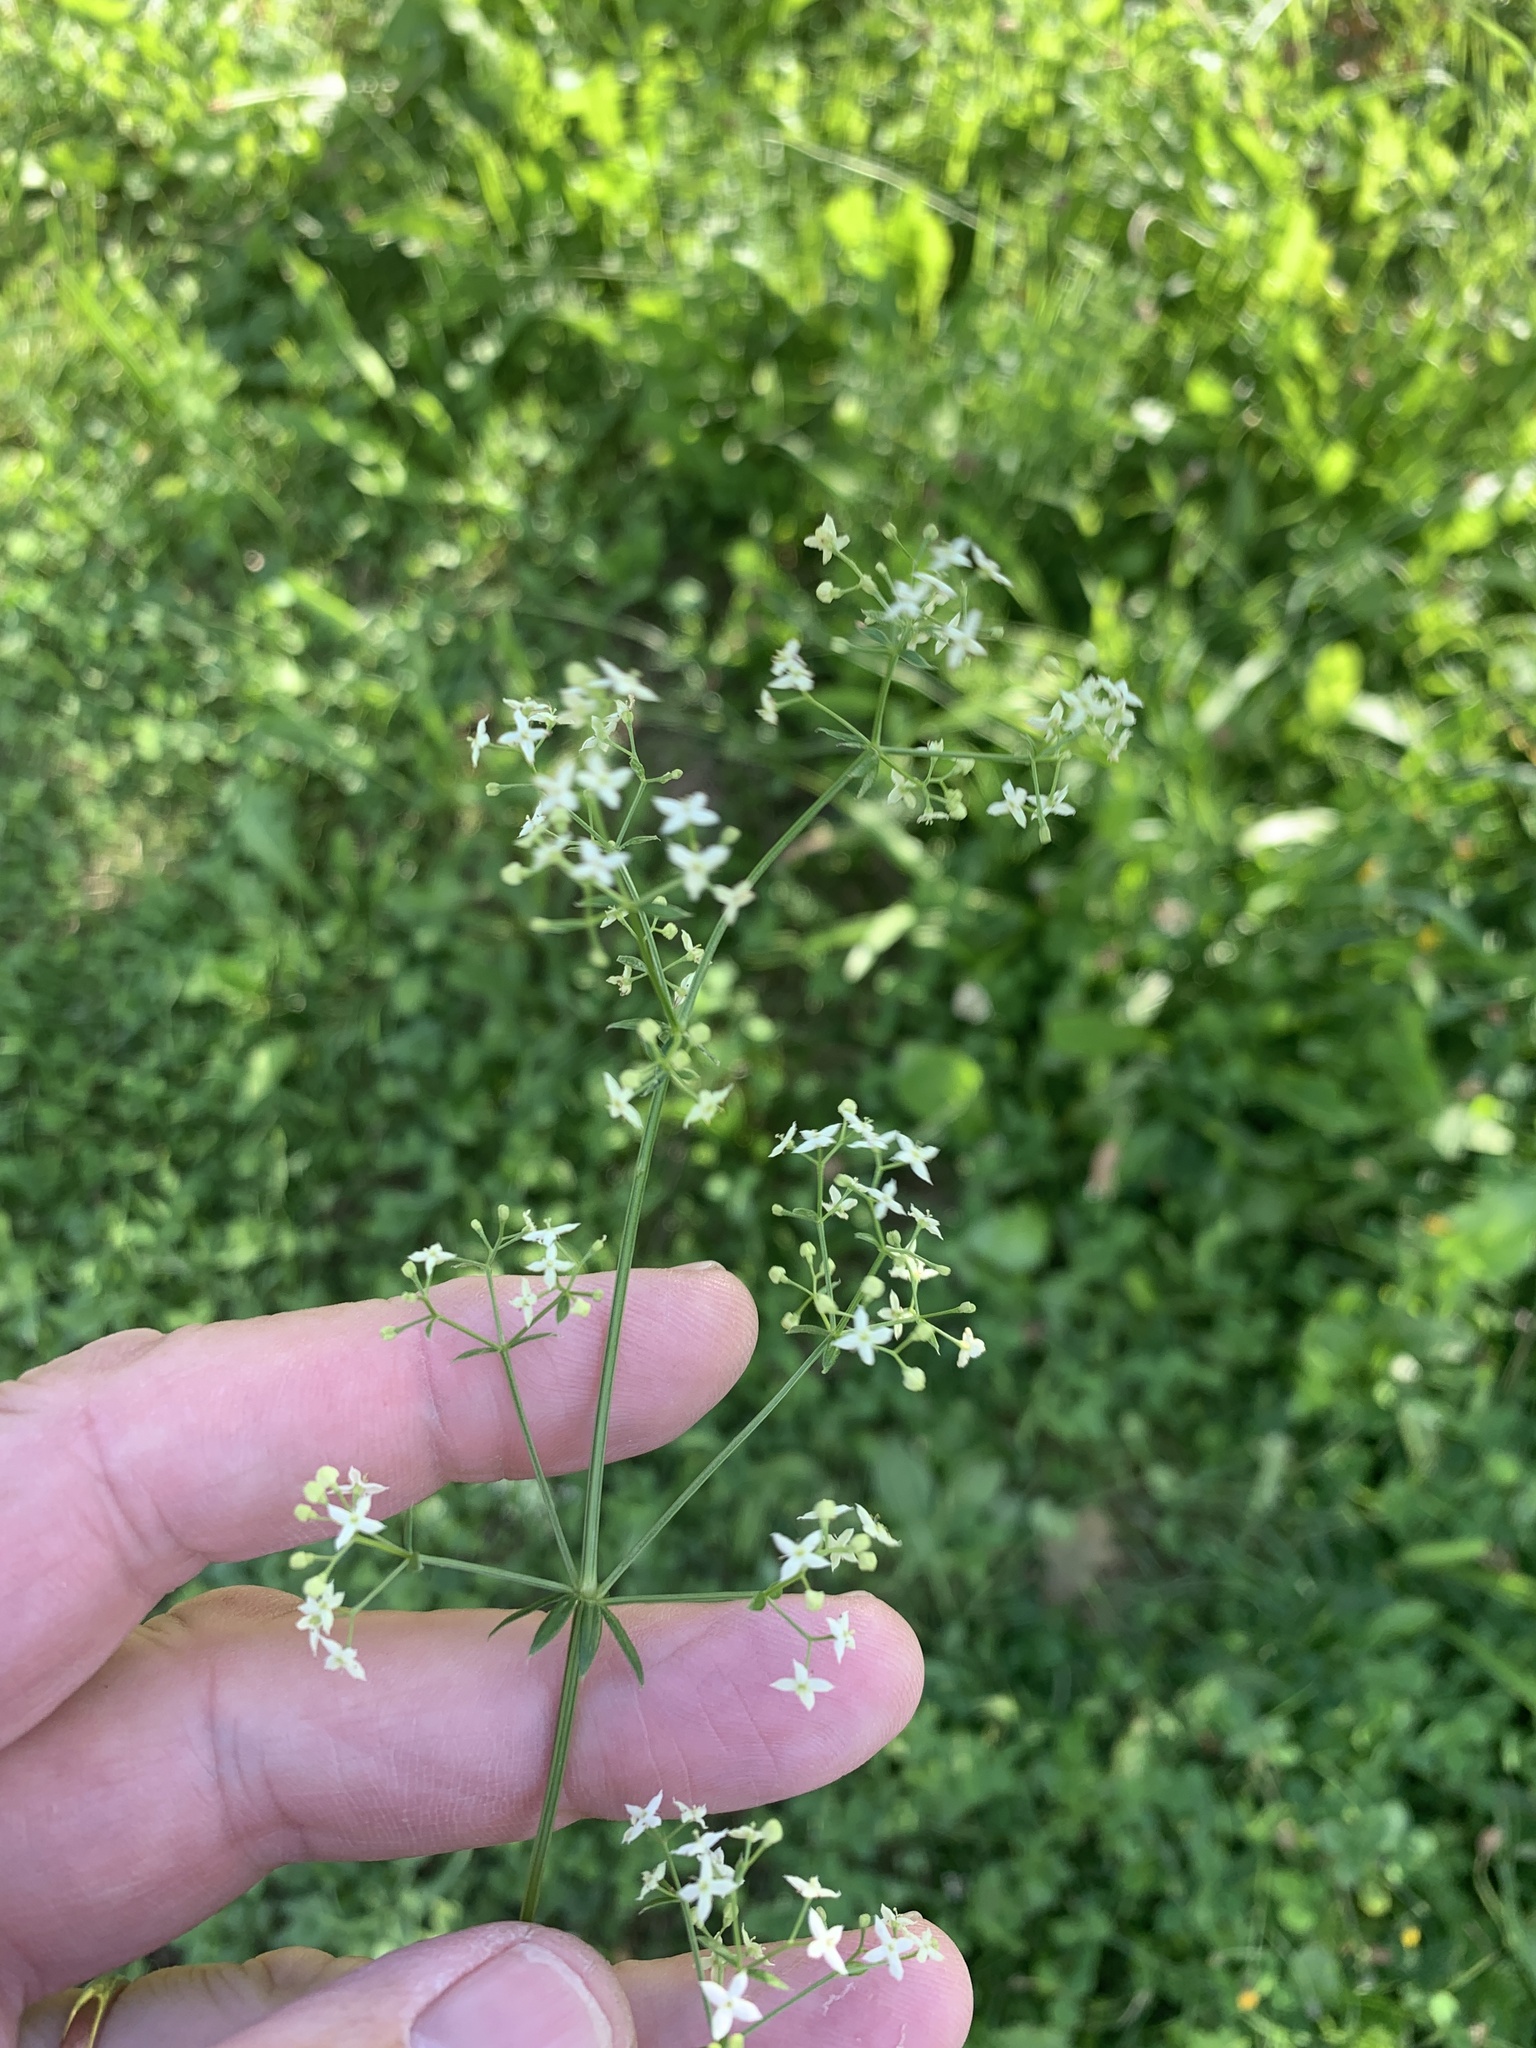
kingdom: Plantae
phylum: Tracheophyta
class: Magnoliopsida
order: Gentianales
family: Rubiaceae
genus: Galium
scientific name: Galium album
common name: White bedstraw
